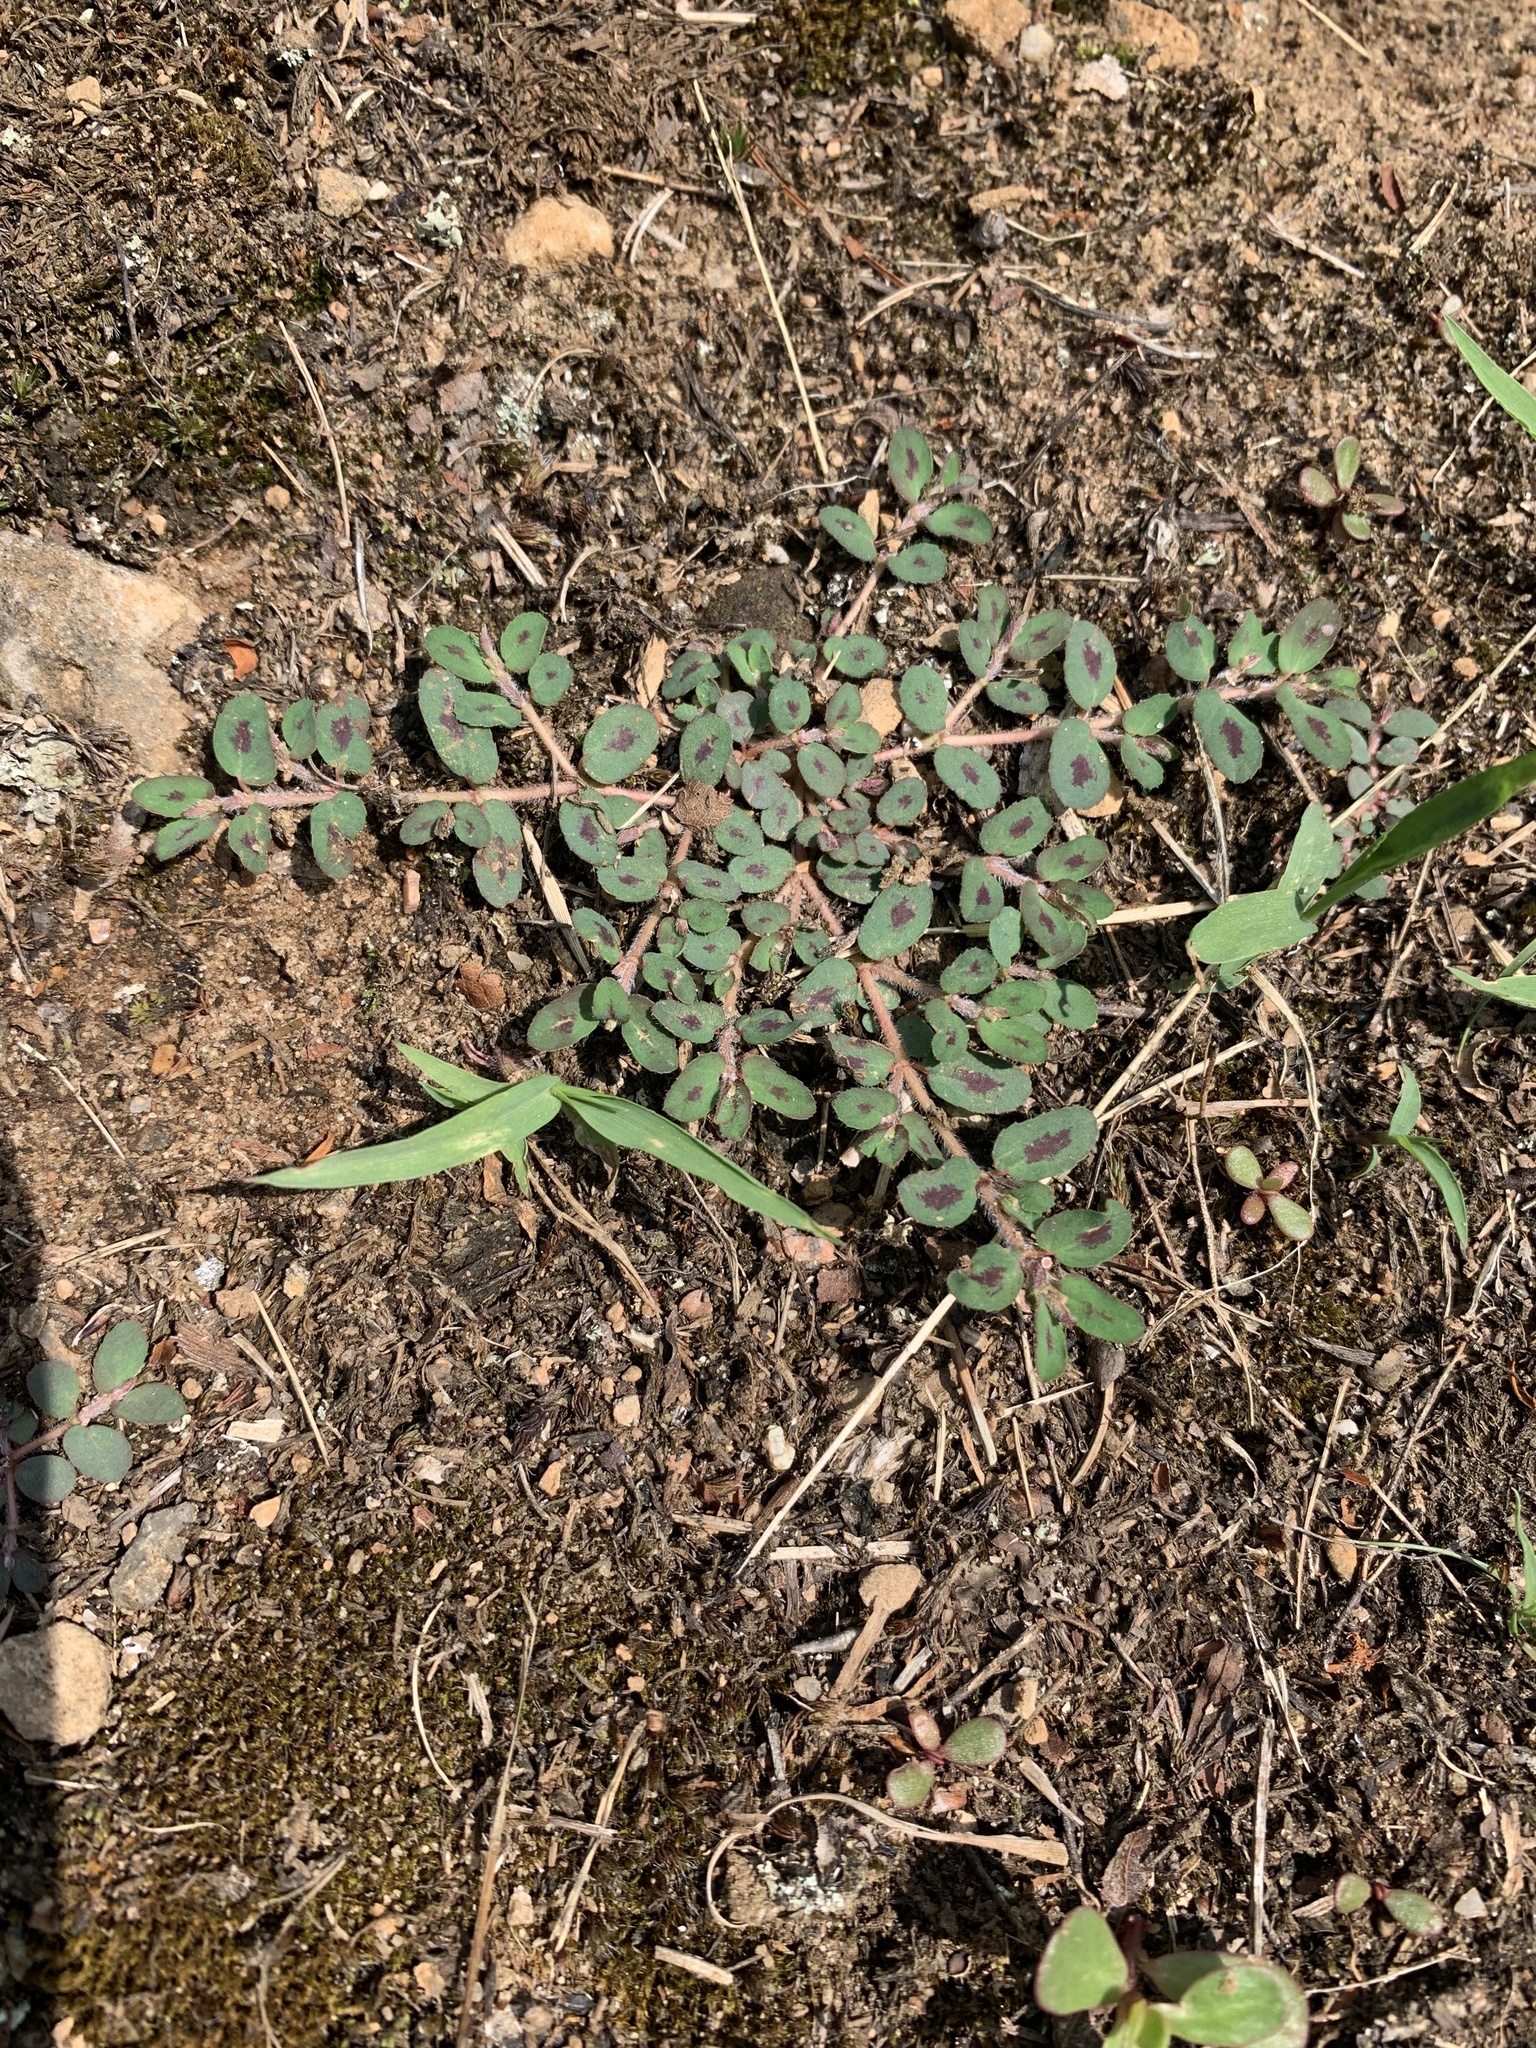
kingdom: Plantae
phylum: Tracheophyta
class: Magnoliopsida
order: Malpighiales
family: Euphorbiaceae
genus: Euphorbia
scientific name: Euphorbia maculata
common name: Spotted spurge
